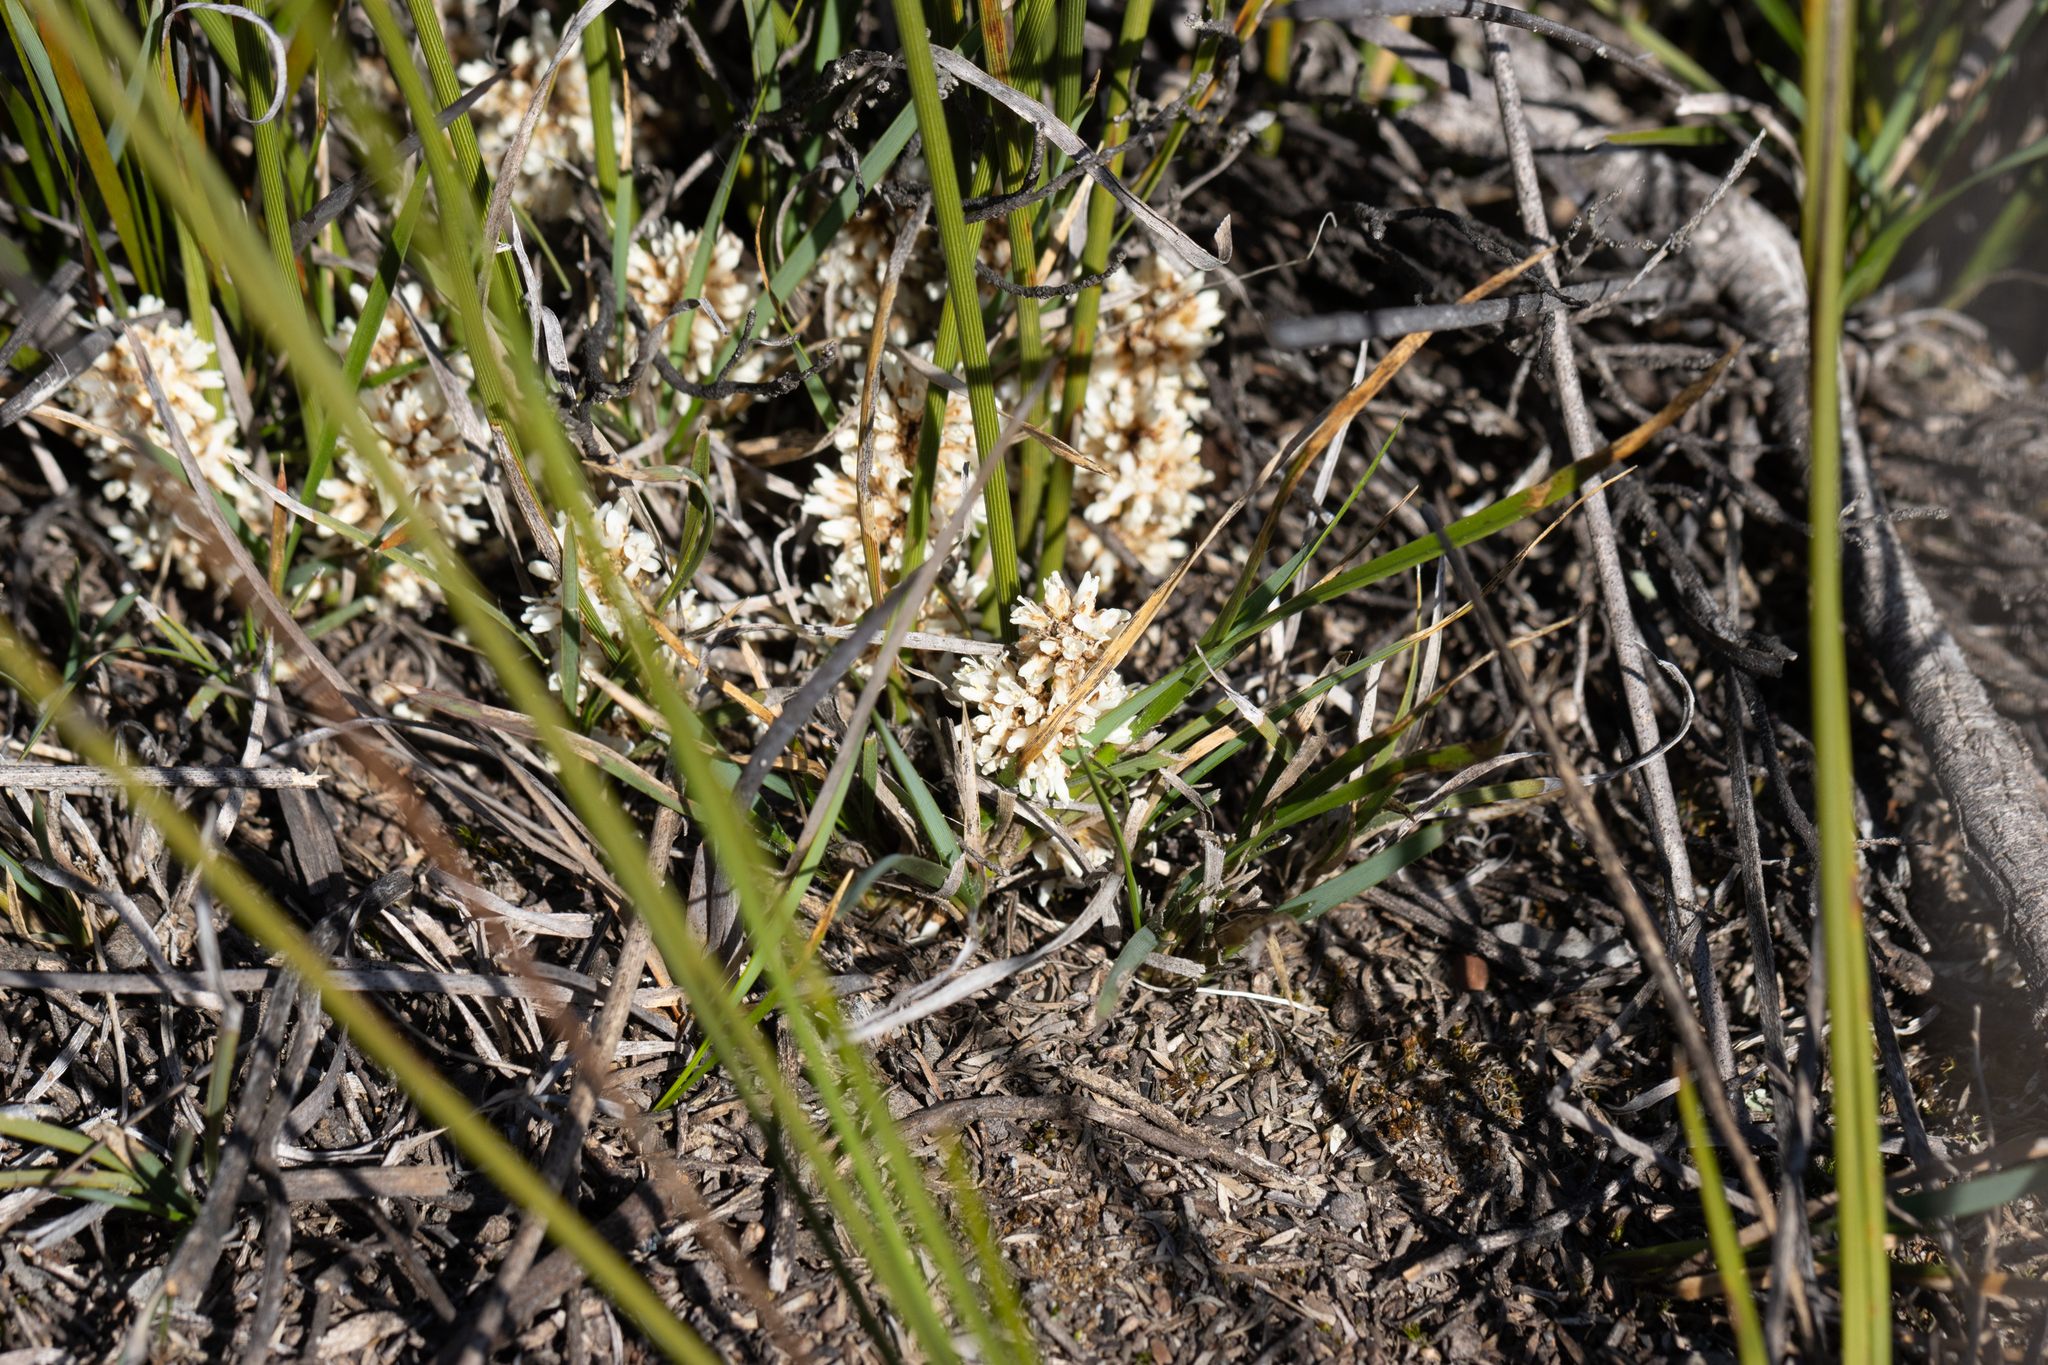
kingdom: Plantae
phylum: Tracheophyta
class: Liliopsida
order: Asparagales
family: Asparagaceae
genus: Lomandra
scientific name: Lomandra juncea
